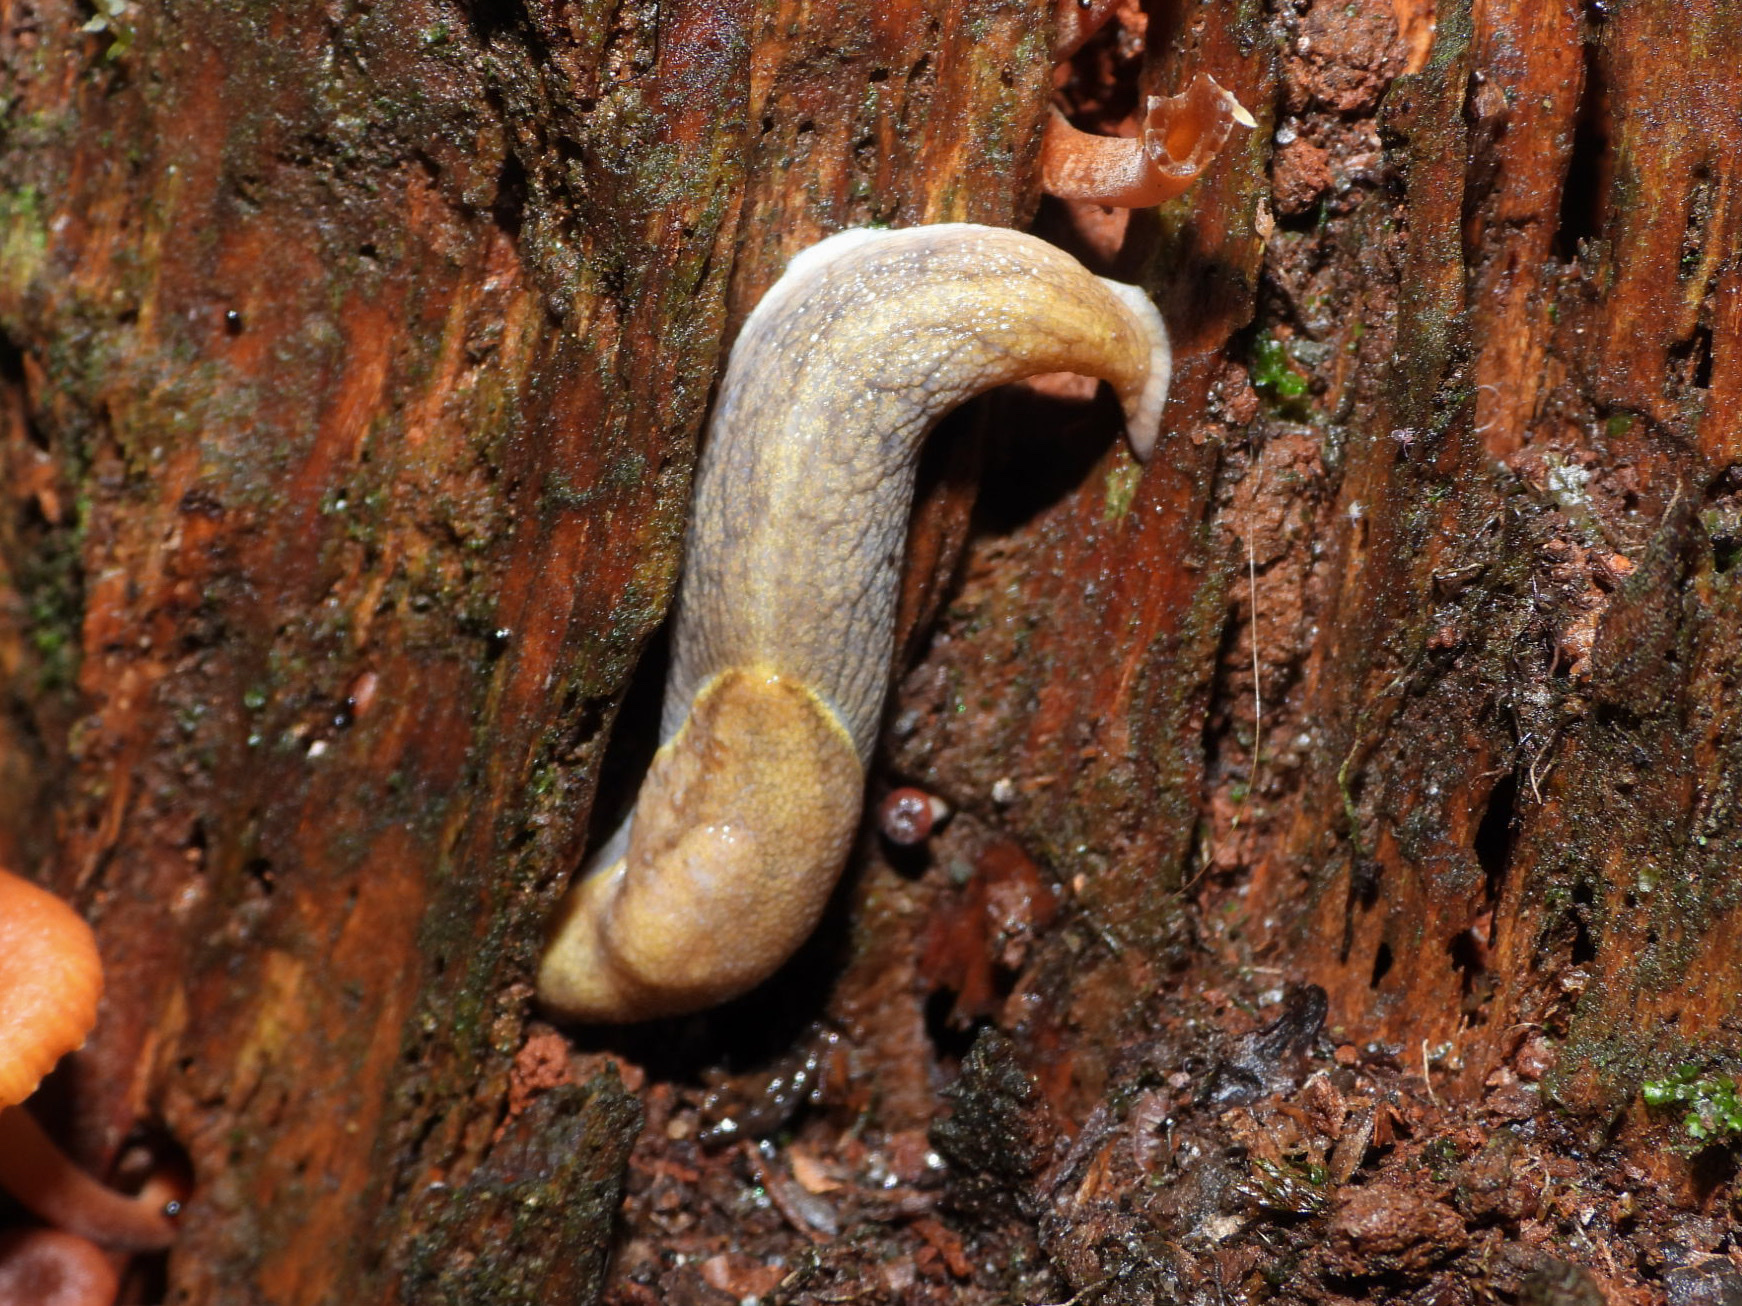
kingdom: Animalia
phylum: Mollusca
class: Gastropoda
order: Stylommatophora
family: Ariolimacidae
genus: Prophysaon
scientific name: Prophysaon foliolatum
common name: Yellow-bordered taildropper
